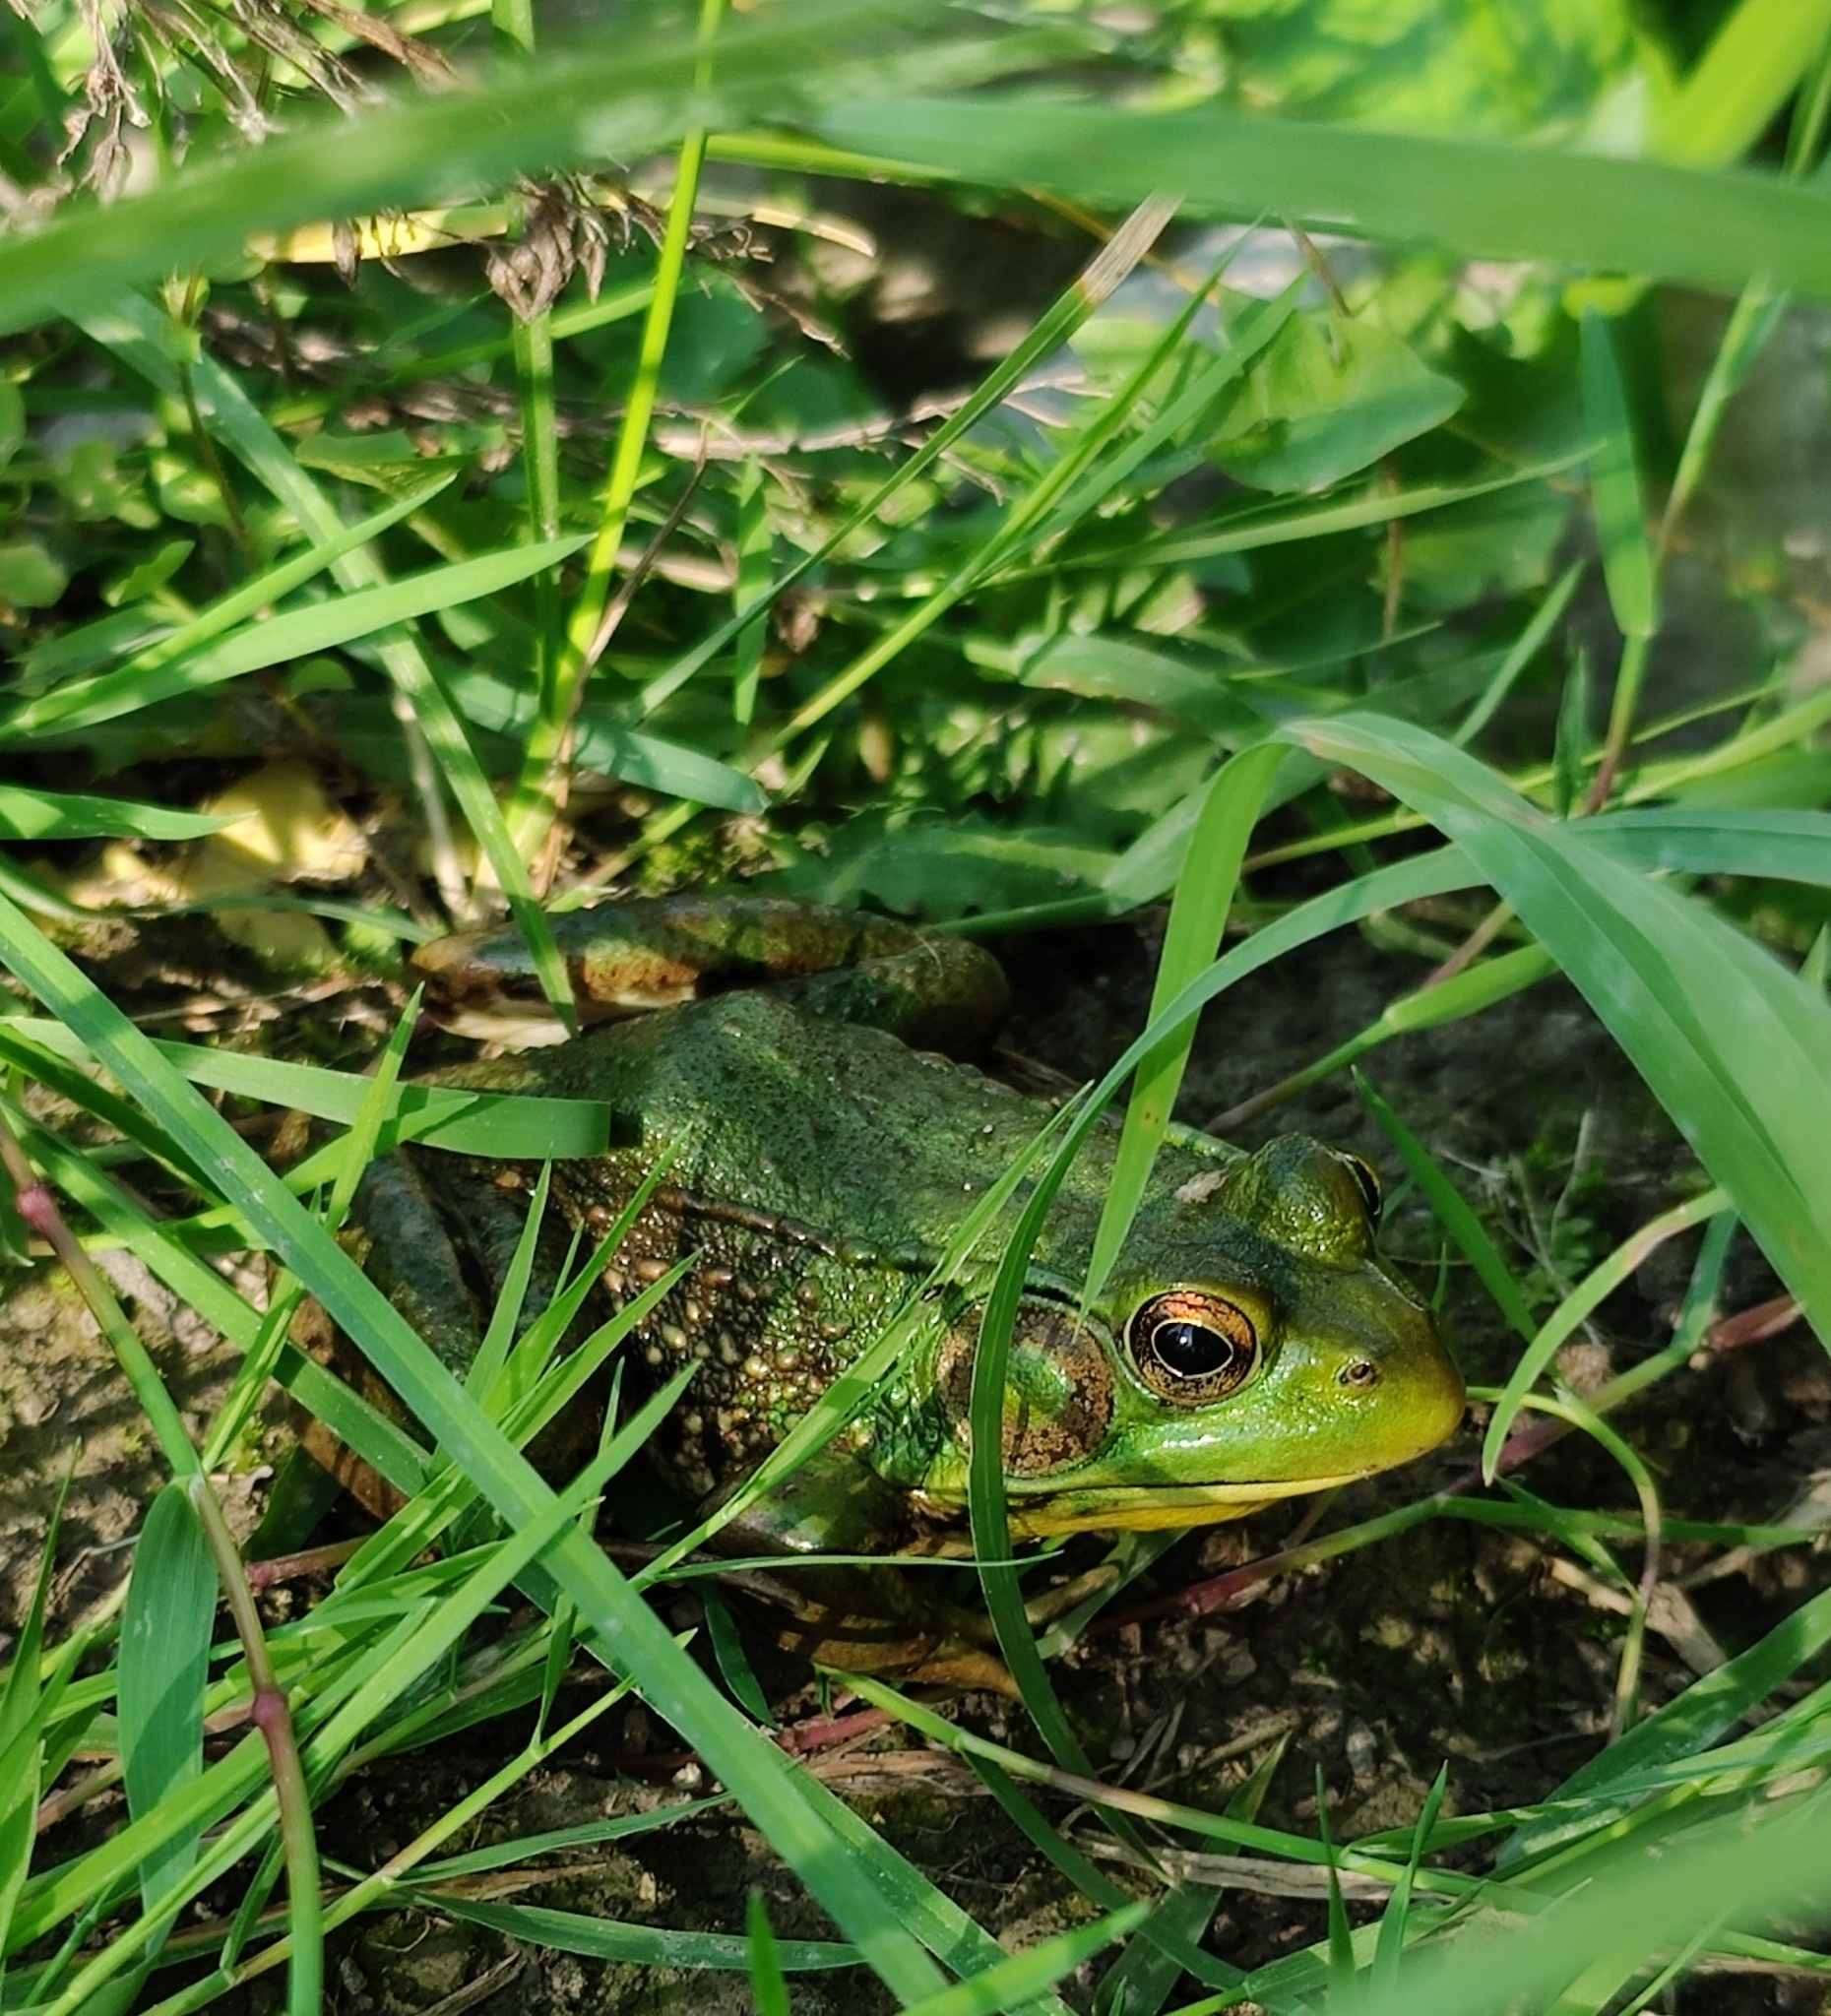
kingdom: Animalia
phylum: Chordata
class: Amphibia
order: Anura
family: Ranidae
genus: Lithobates
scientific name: Lithobates clamitans
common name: Green frog
